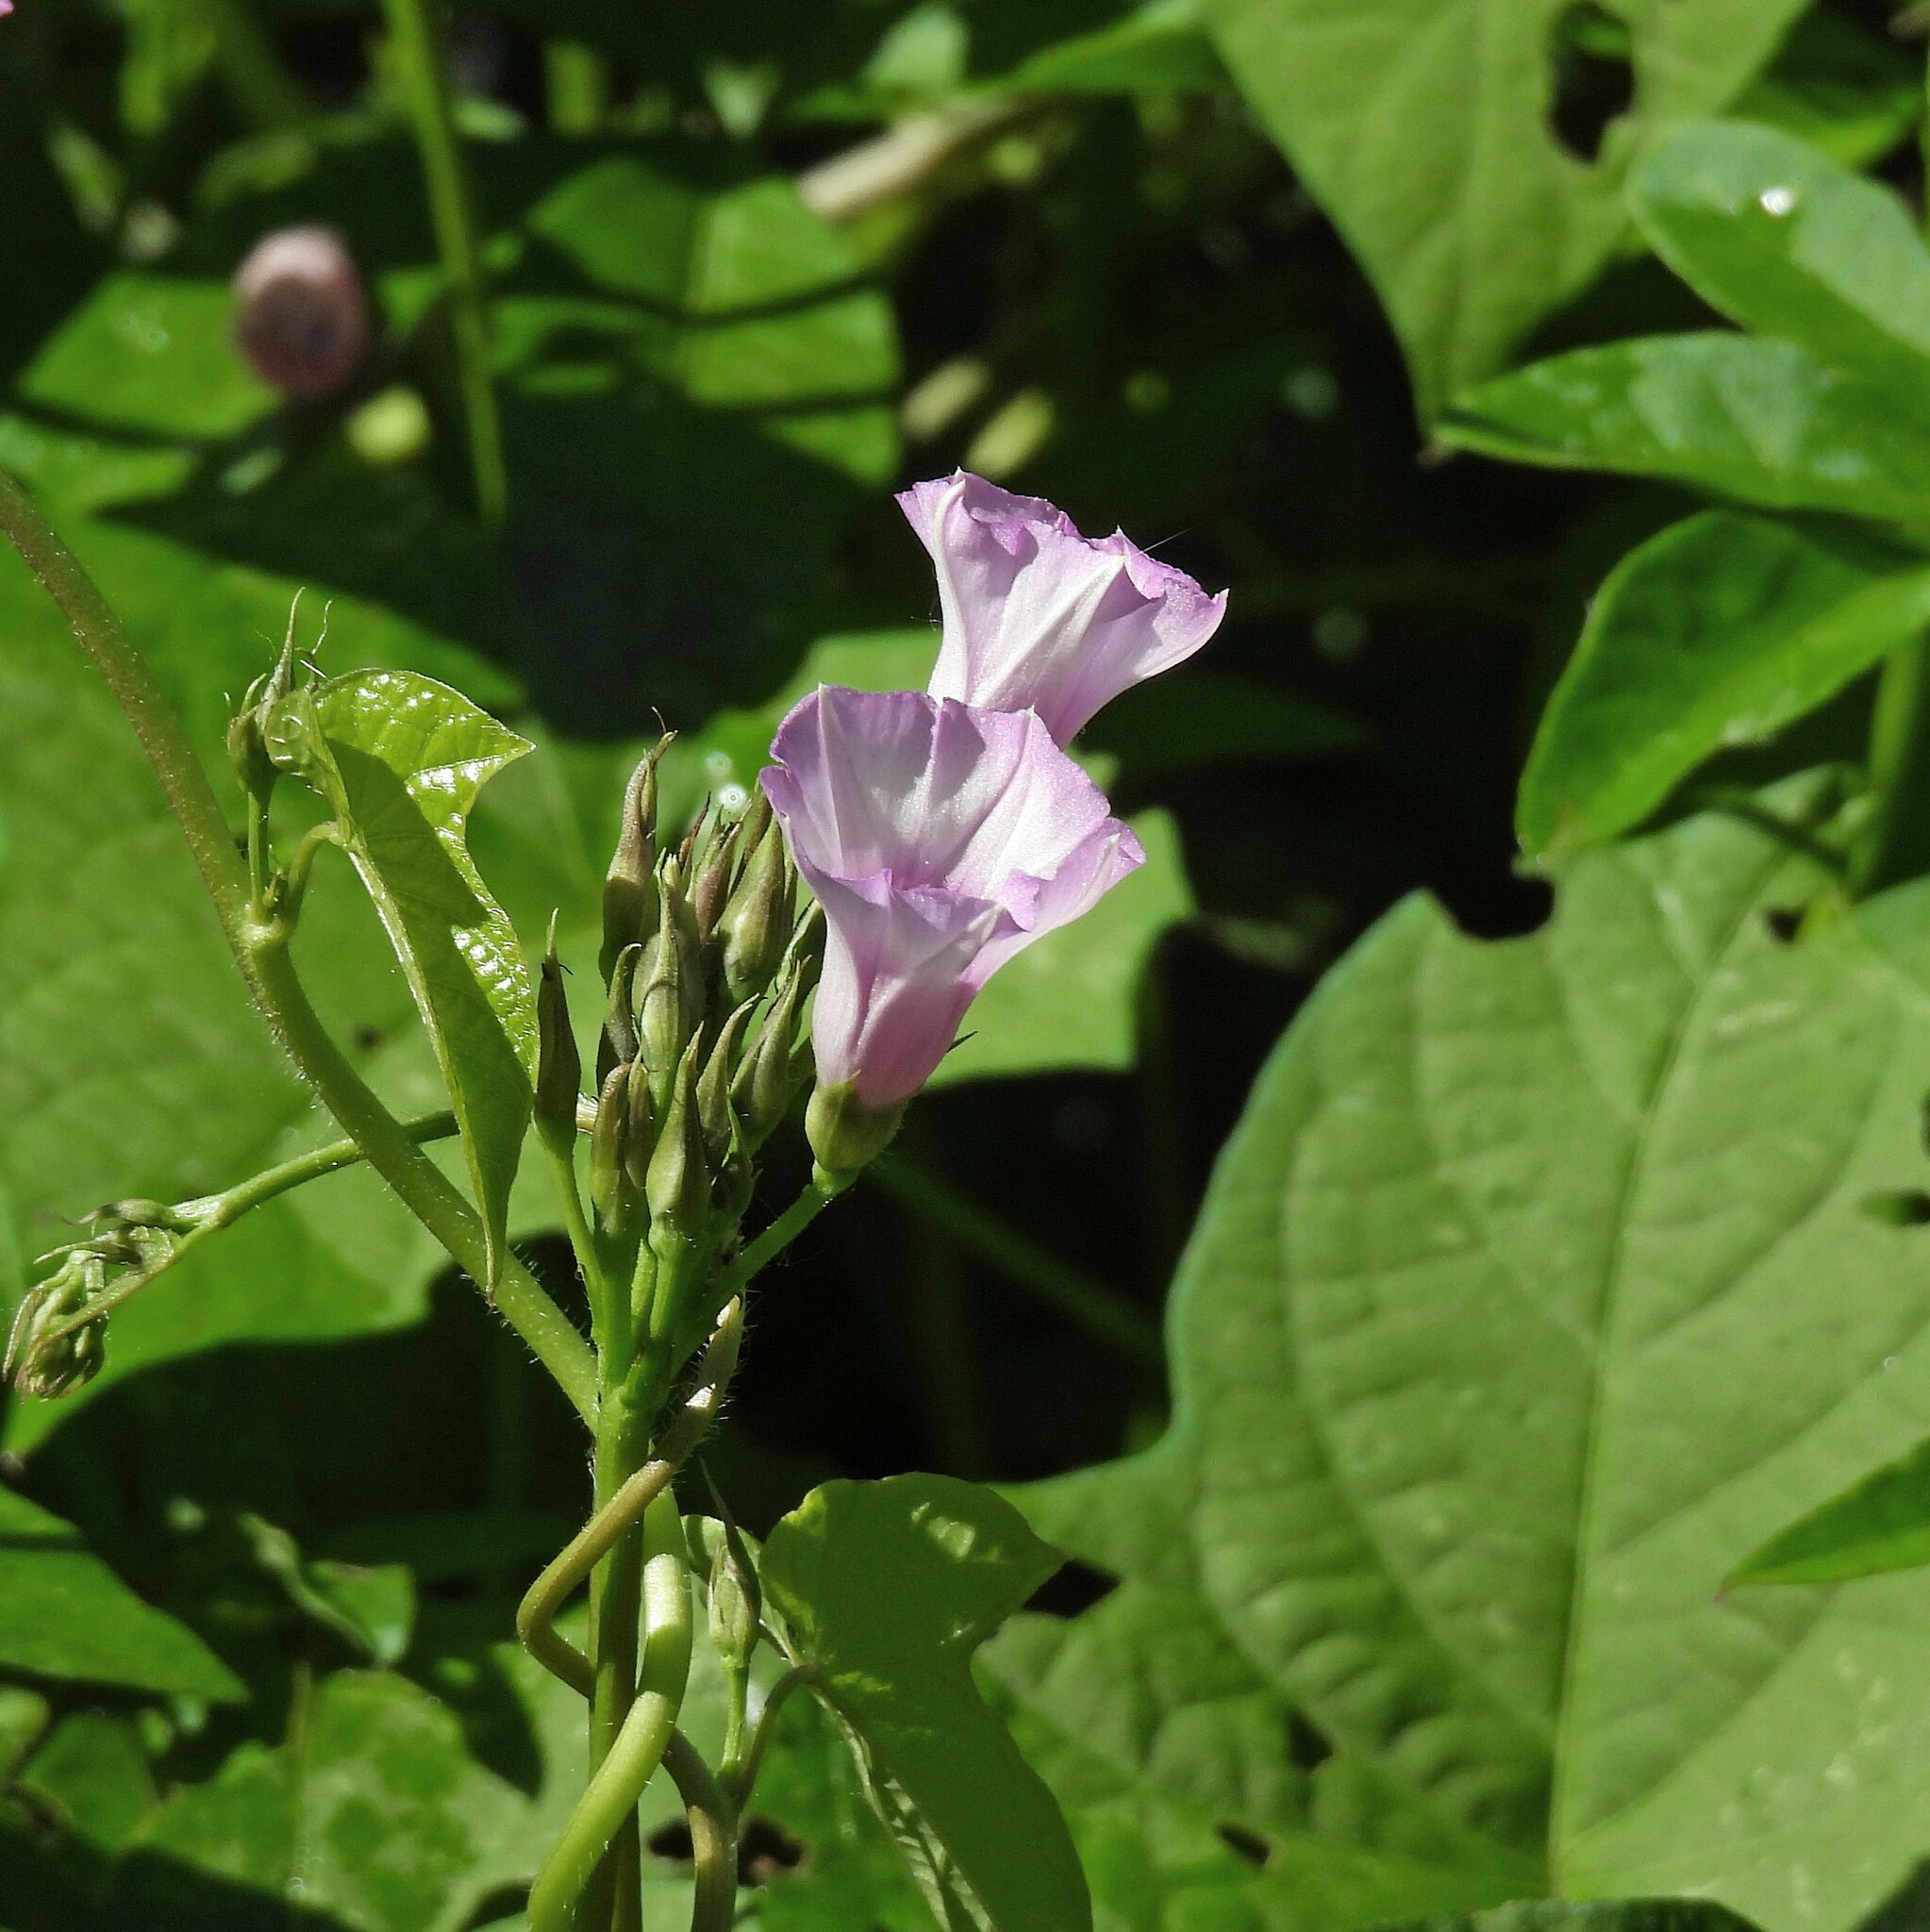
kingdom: Plantae
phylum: Tracheophyta
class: Magnoliopsida
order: Solanales
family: Convolvulaceae
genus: Ipomoea
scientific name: Ipomoea grandifolia
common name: Aiea morning glory
